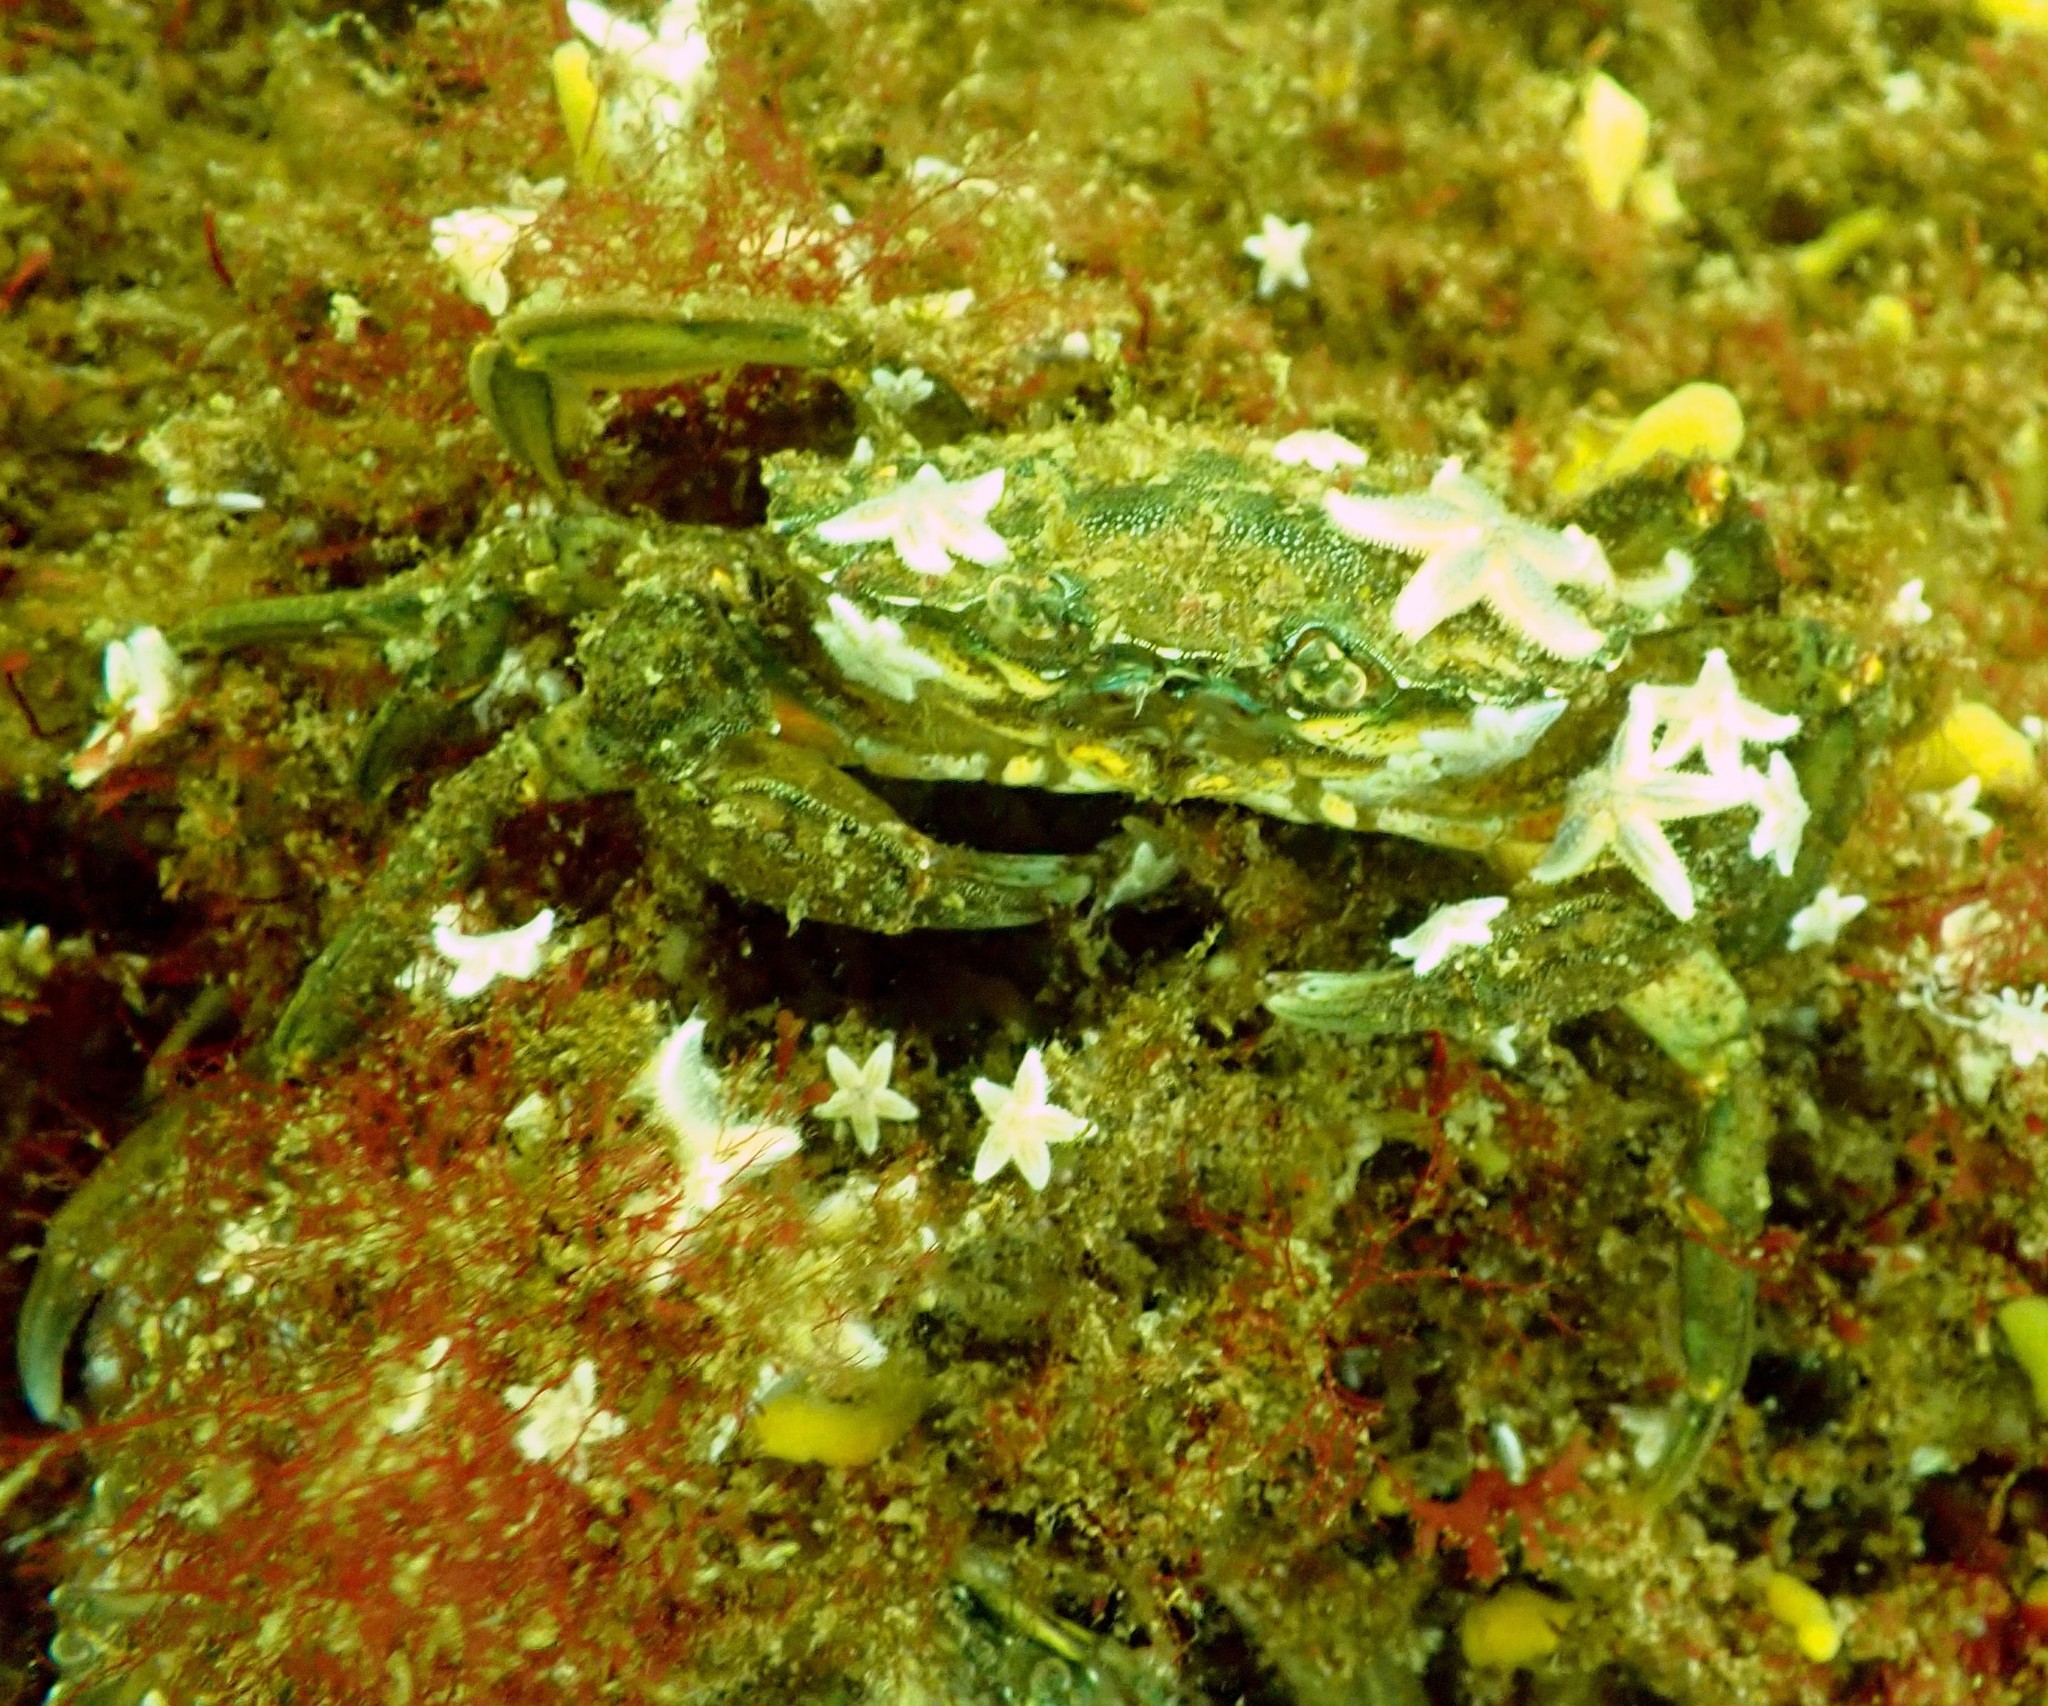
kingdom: Animalia
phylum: Arthropoda
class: Malacostraca
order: Decapoda
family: Carcinidae
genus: Carcinus
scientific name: Carcinus maenas
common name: European green crab
